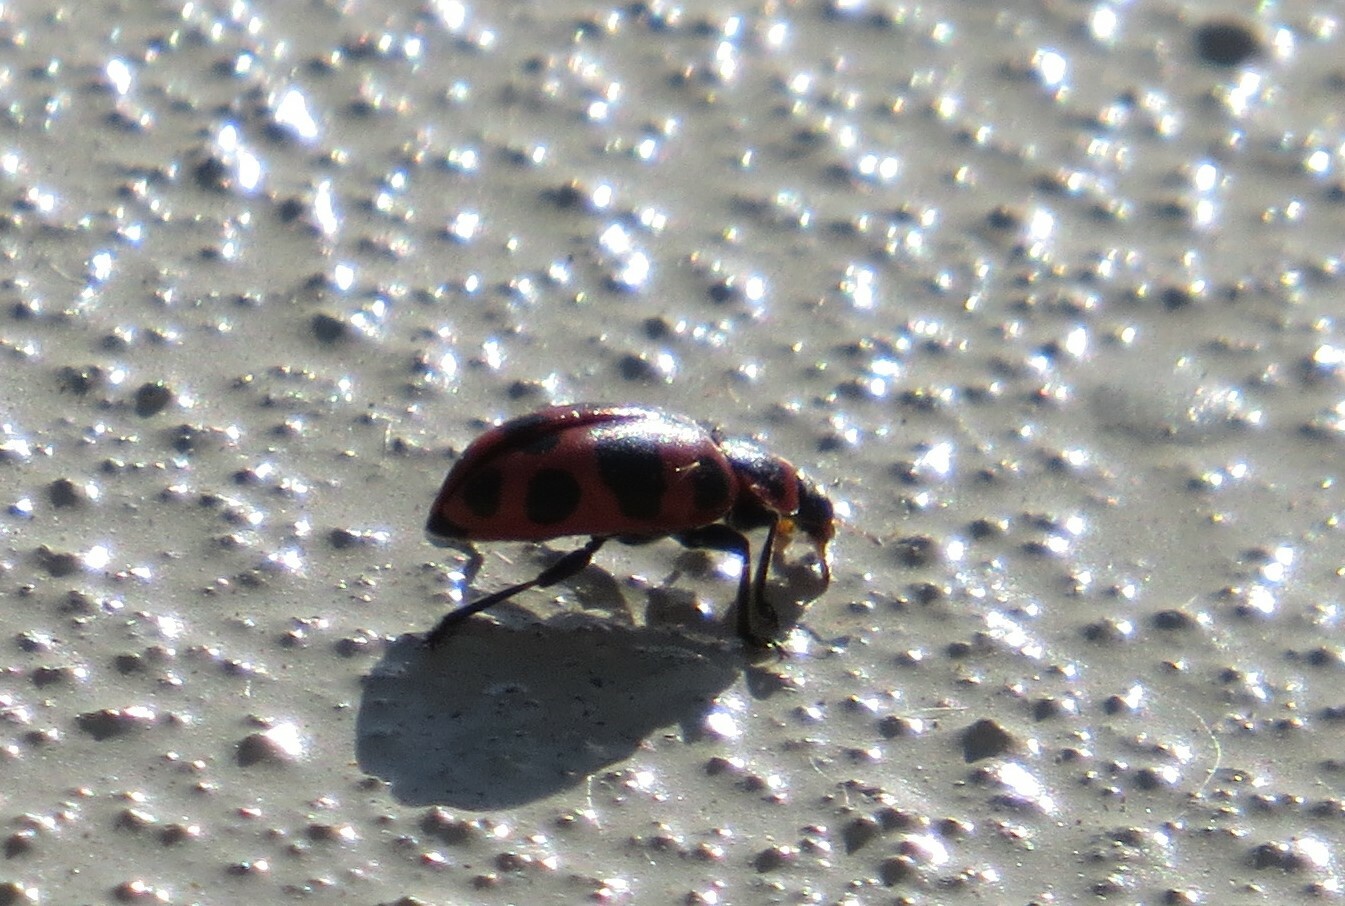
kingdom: Animalia
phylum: Arthropoda
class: Insecta
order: Coleoptera
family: Coccinellidae
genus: Coleomegilla
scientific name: Coleomegilla maculata
